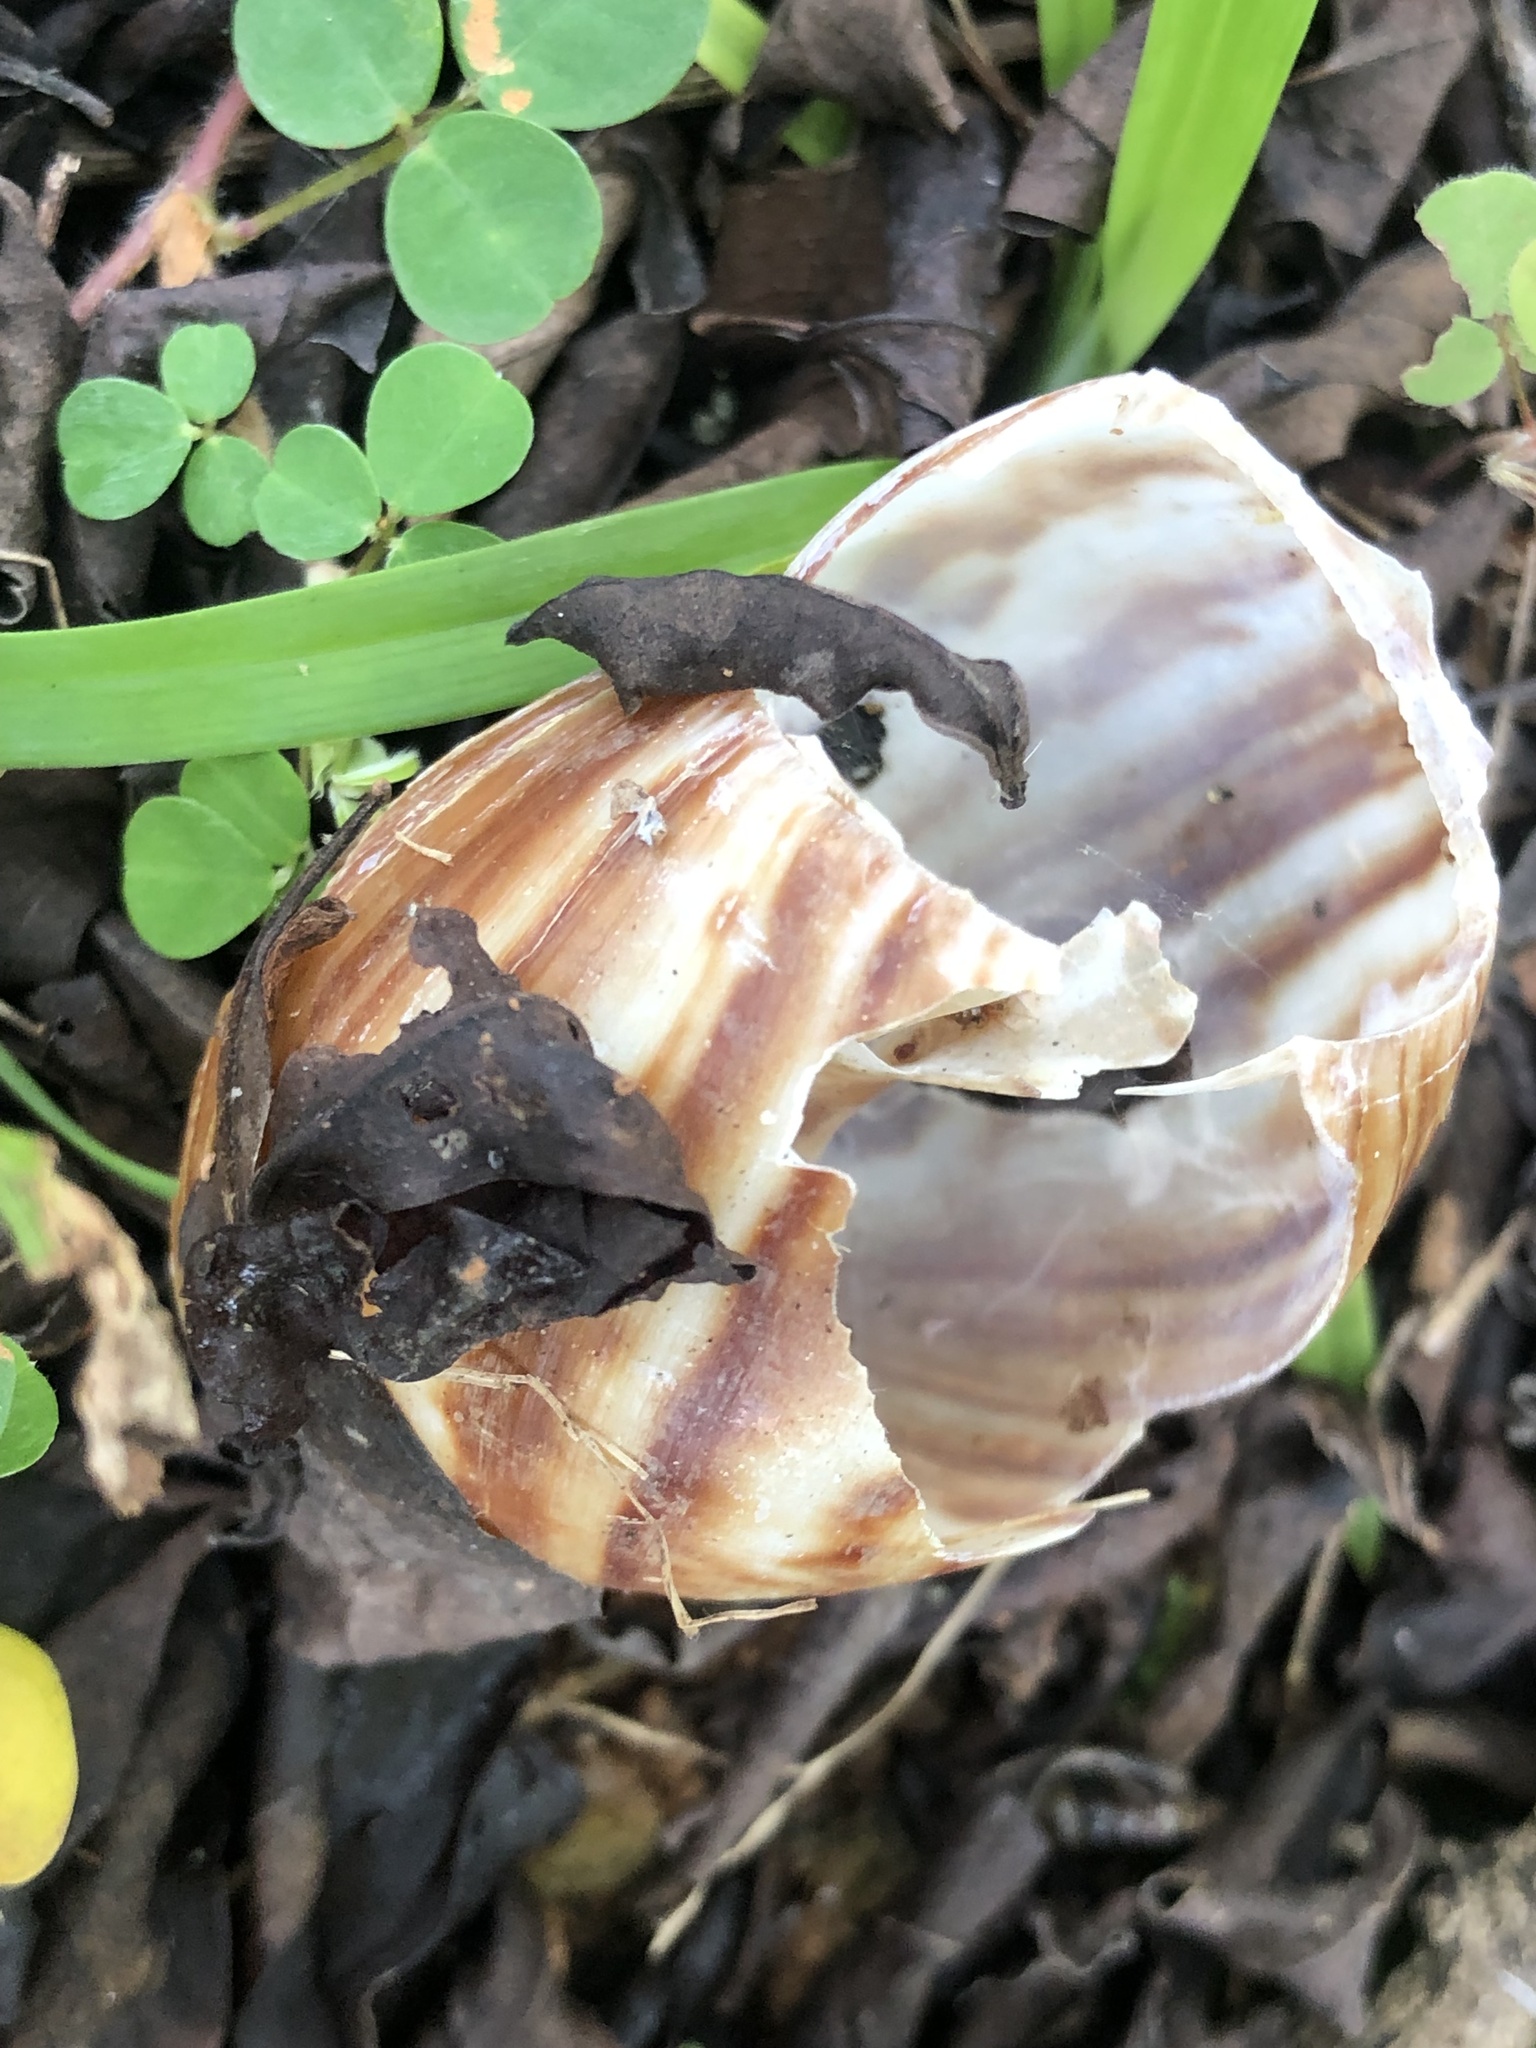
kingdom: Animalia
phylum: Mollusca
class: Gastropoda
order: Stylommatophora
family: Achatinidae
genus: Lissachatina
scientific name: Lissachatina fulica
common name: Giant african snail
